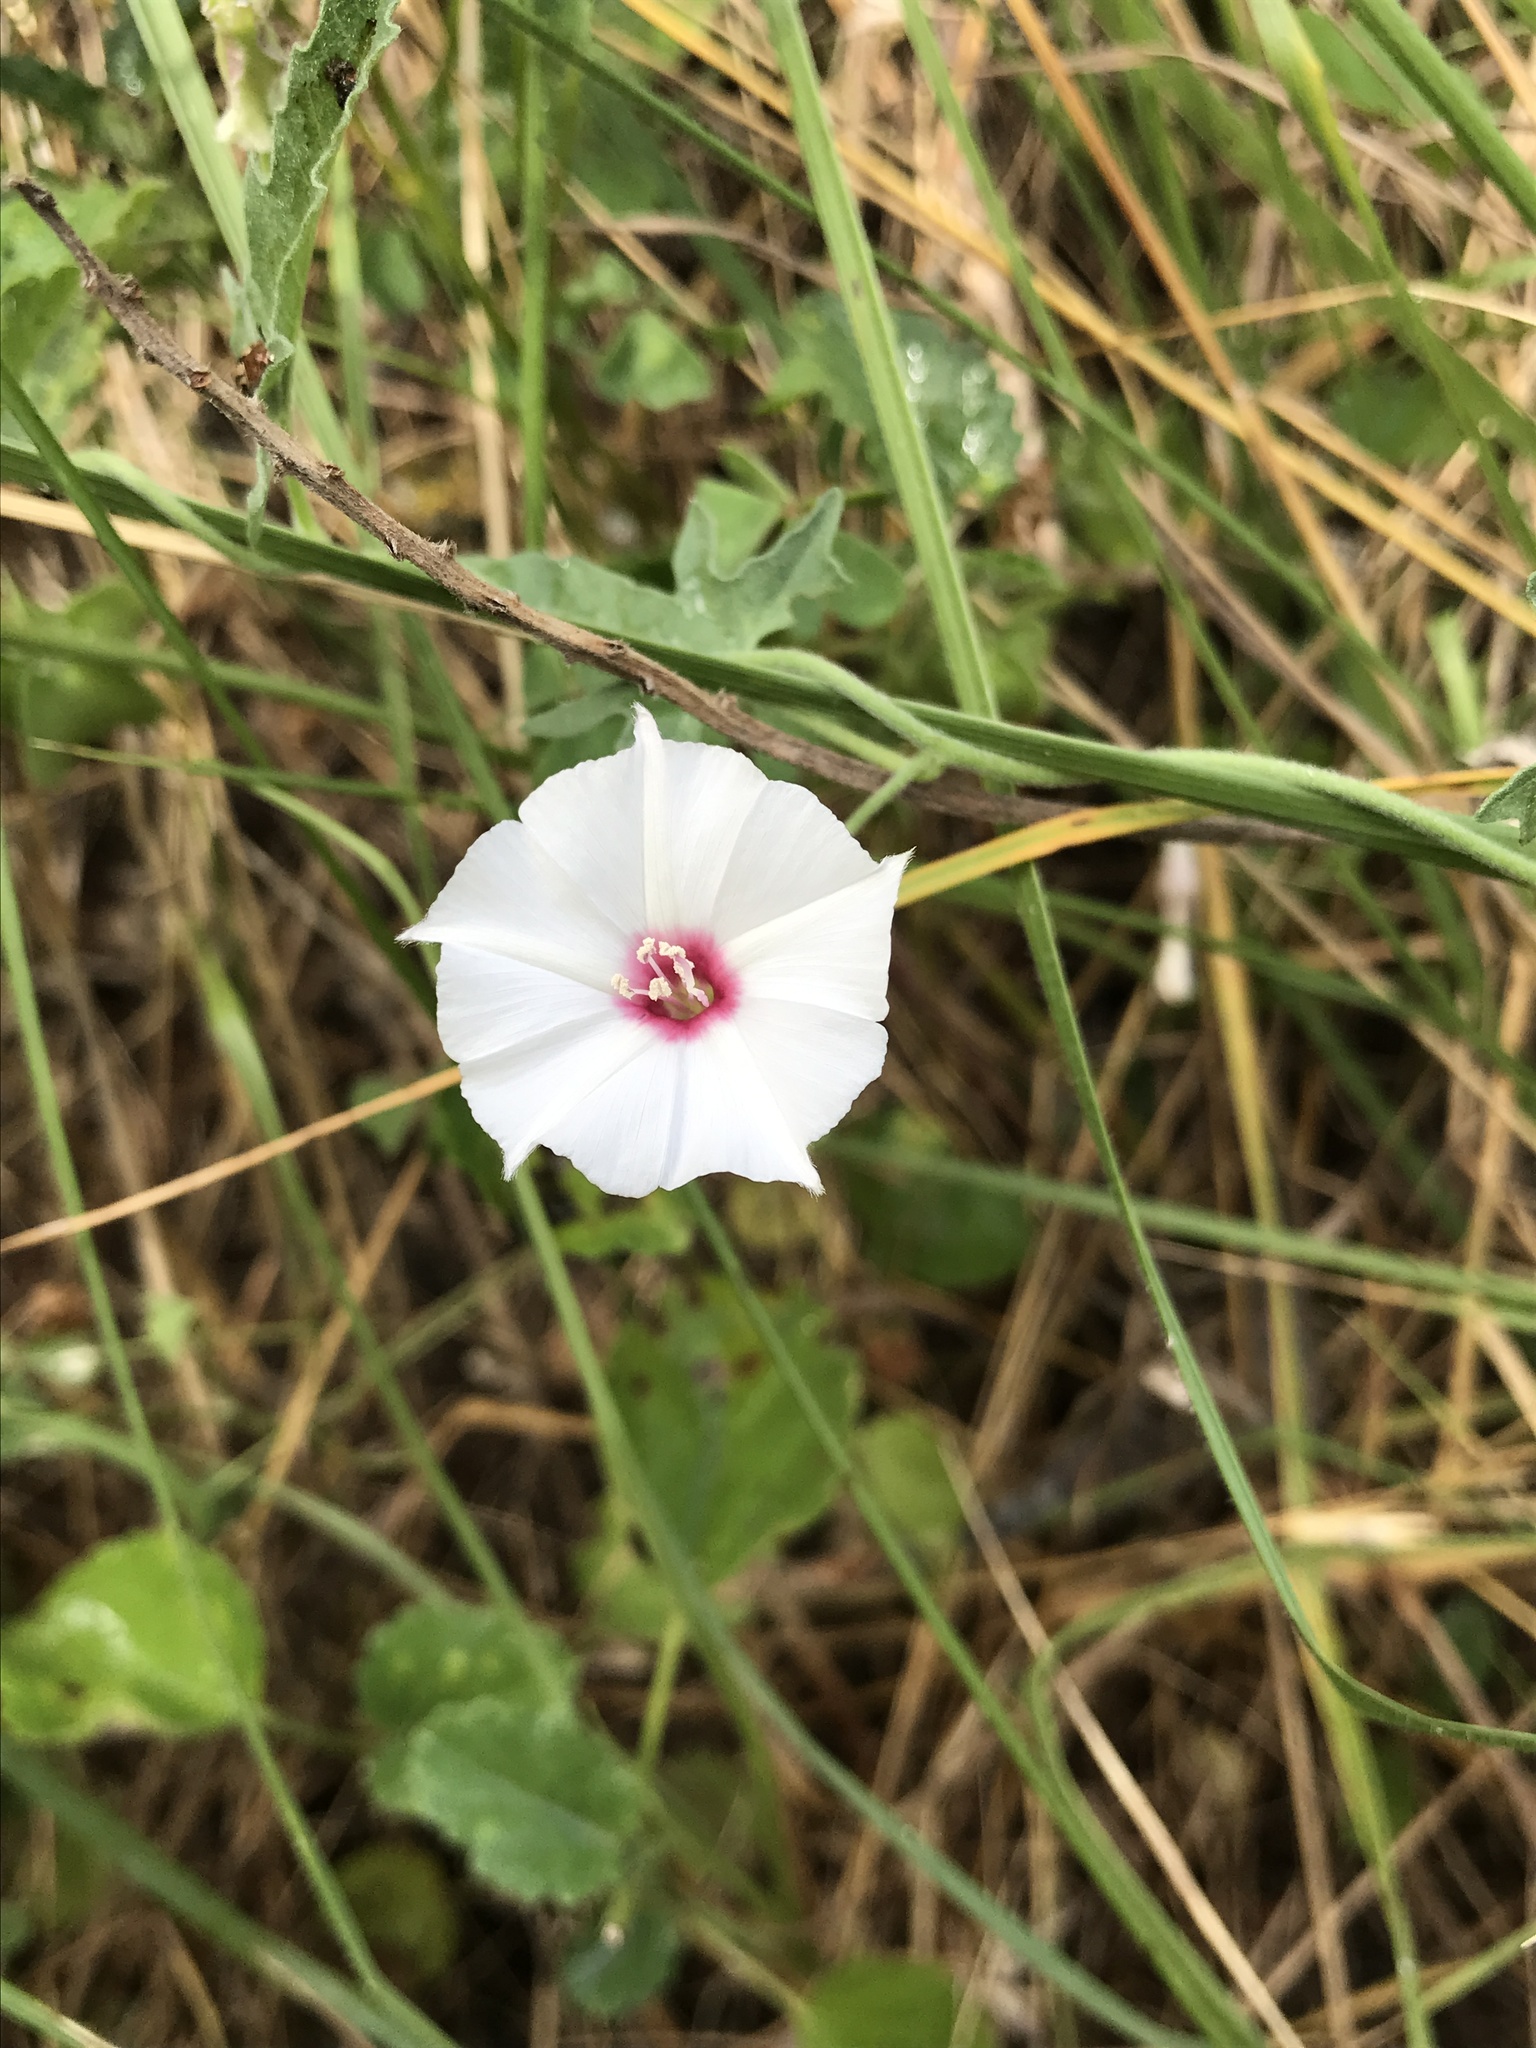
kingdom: Plantae
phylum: Tracheophyta
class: Magnoliopsida
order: Solanales
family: Convolvulaceae
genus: Convolvulus
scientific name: Convolvulus equitans
